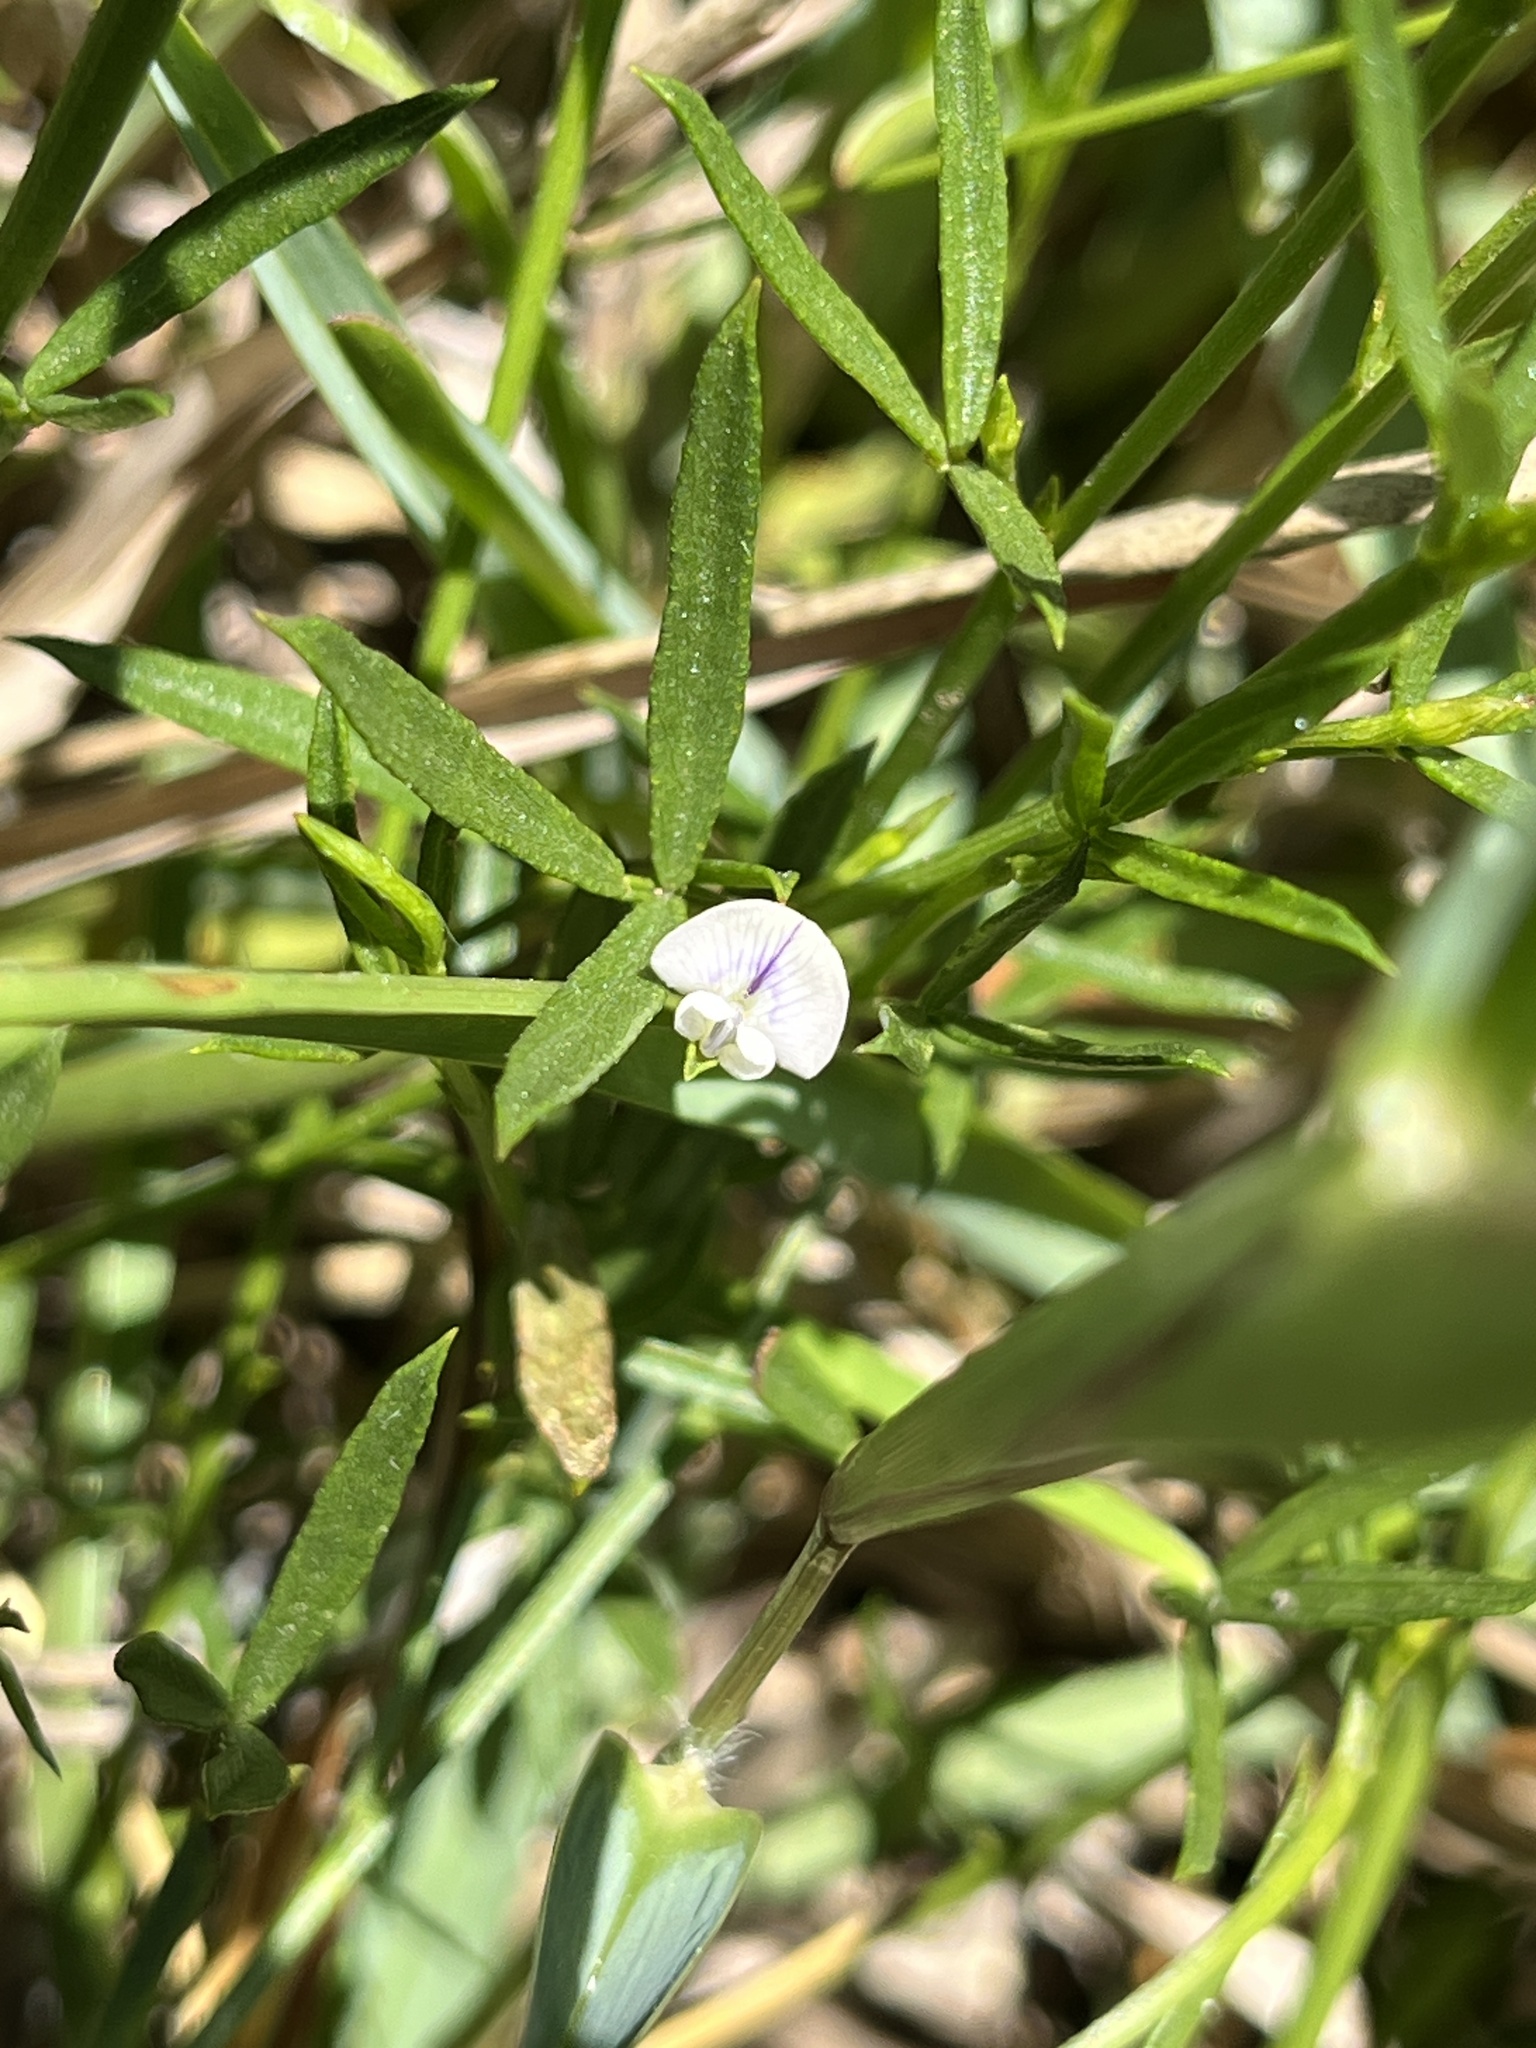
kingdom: Plantae
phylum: Tracheophyta
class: Magnoliopsida
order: Fabales
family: Fabaceae
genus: Psoralea
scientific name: Psoralea glaucina
